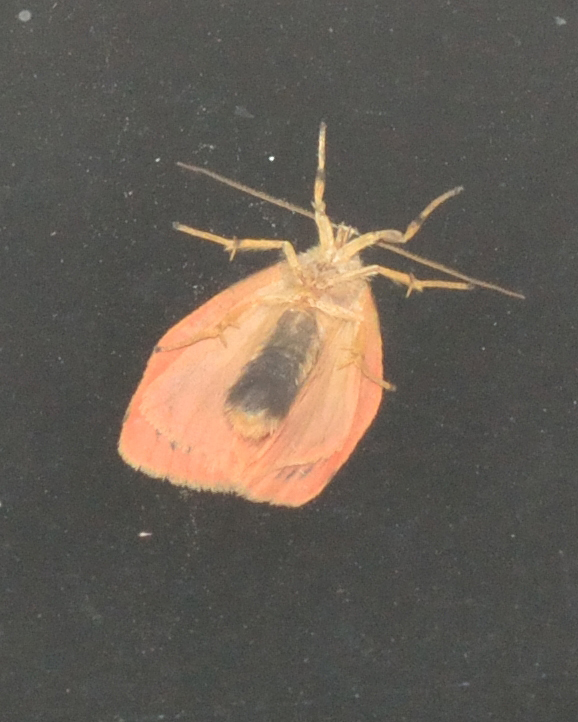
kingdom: Animalia
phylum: Arthropoda
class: Insecta
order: Lepidoptera
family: Erebidae
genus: Miltochrista
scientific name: Miltochrista miniata
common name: Rosy footman
